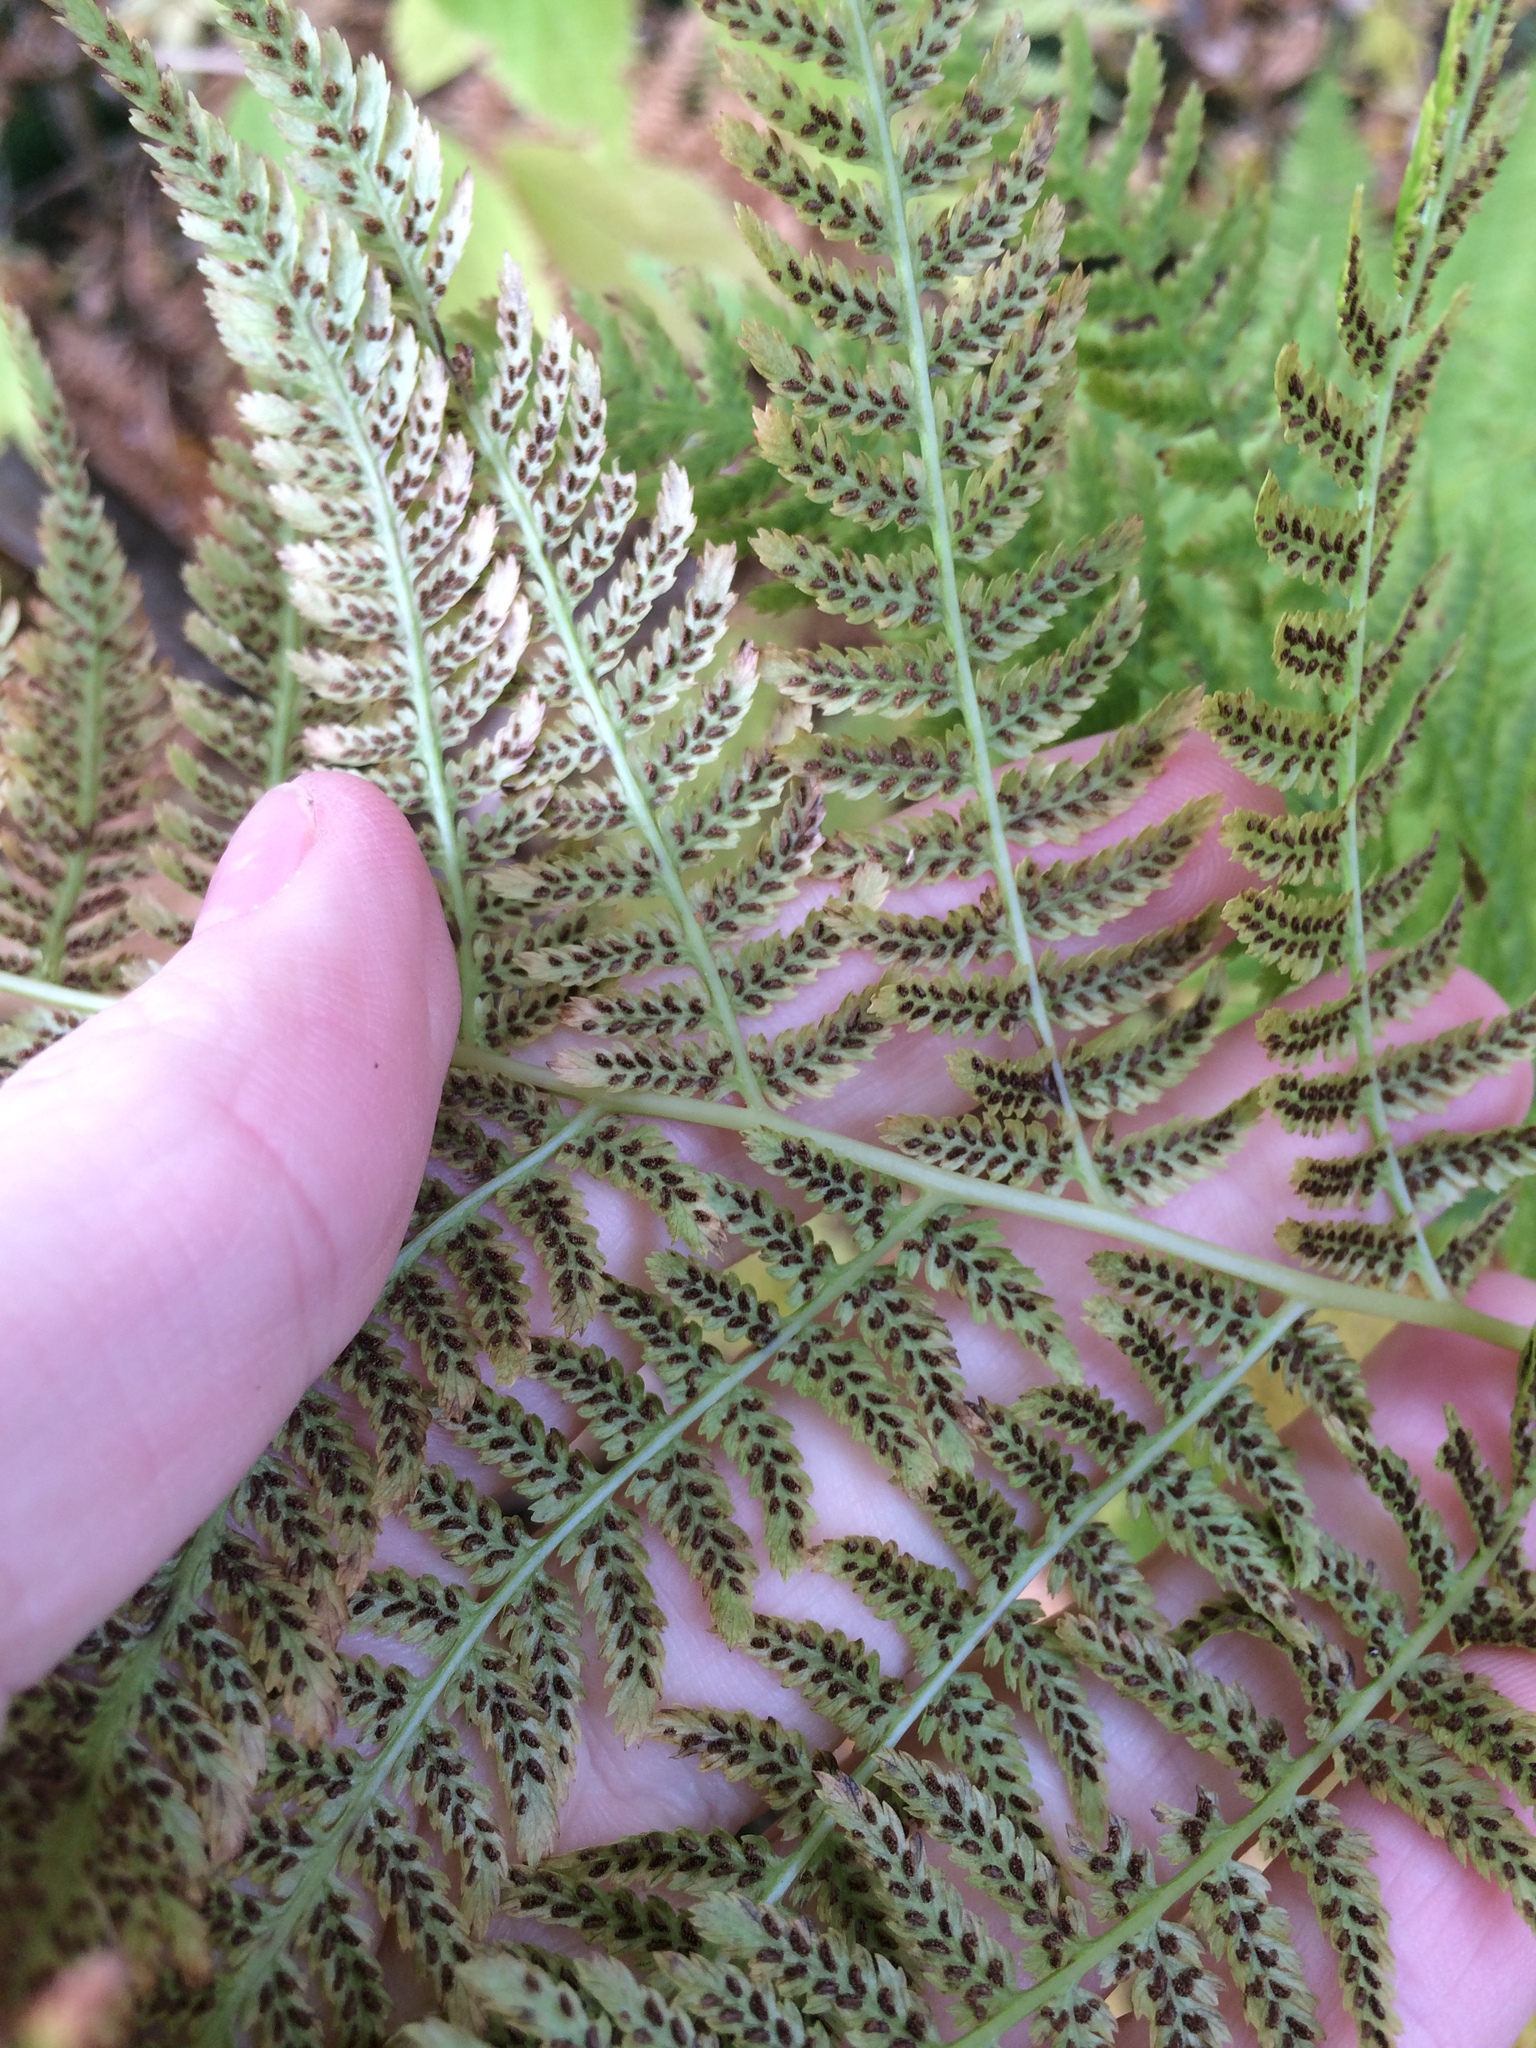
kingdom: Plantae
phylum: Tracheophyta
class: Polypodiopsida
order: Polypodiales
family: Athyriaceae
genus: Athyrium
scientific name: Athyrium angustum
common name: Northern lady fern
